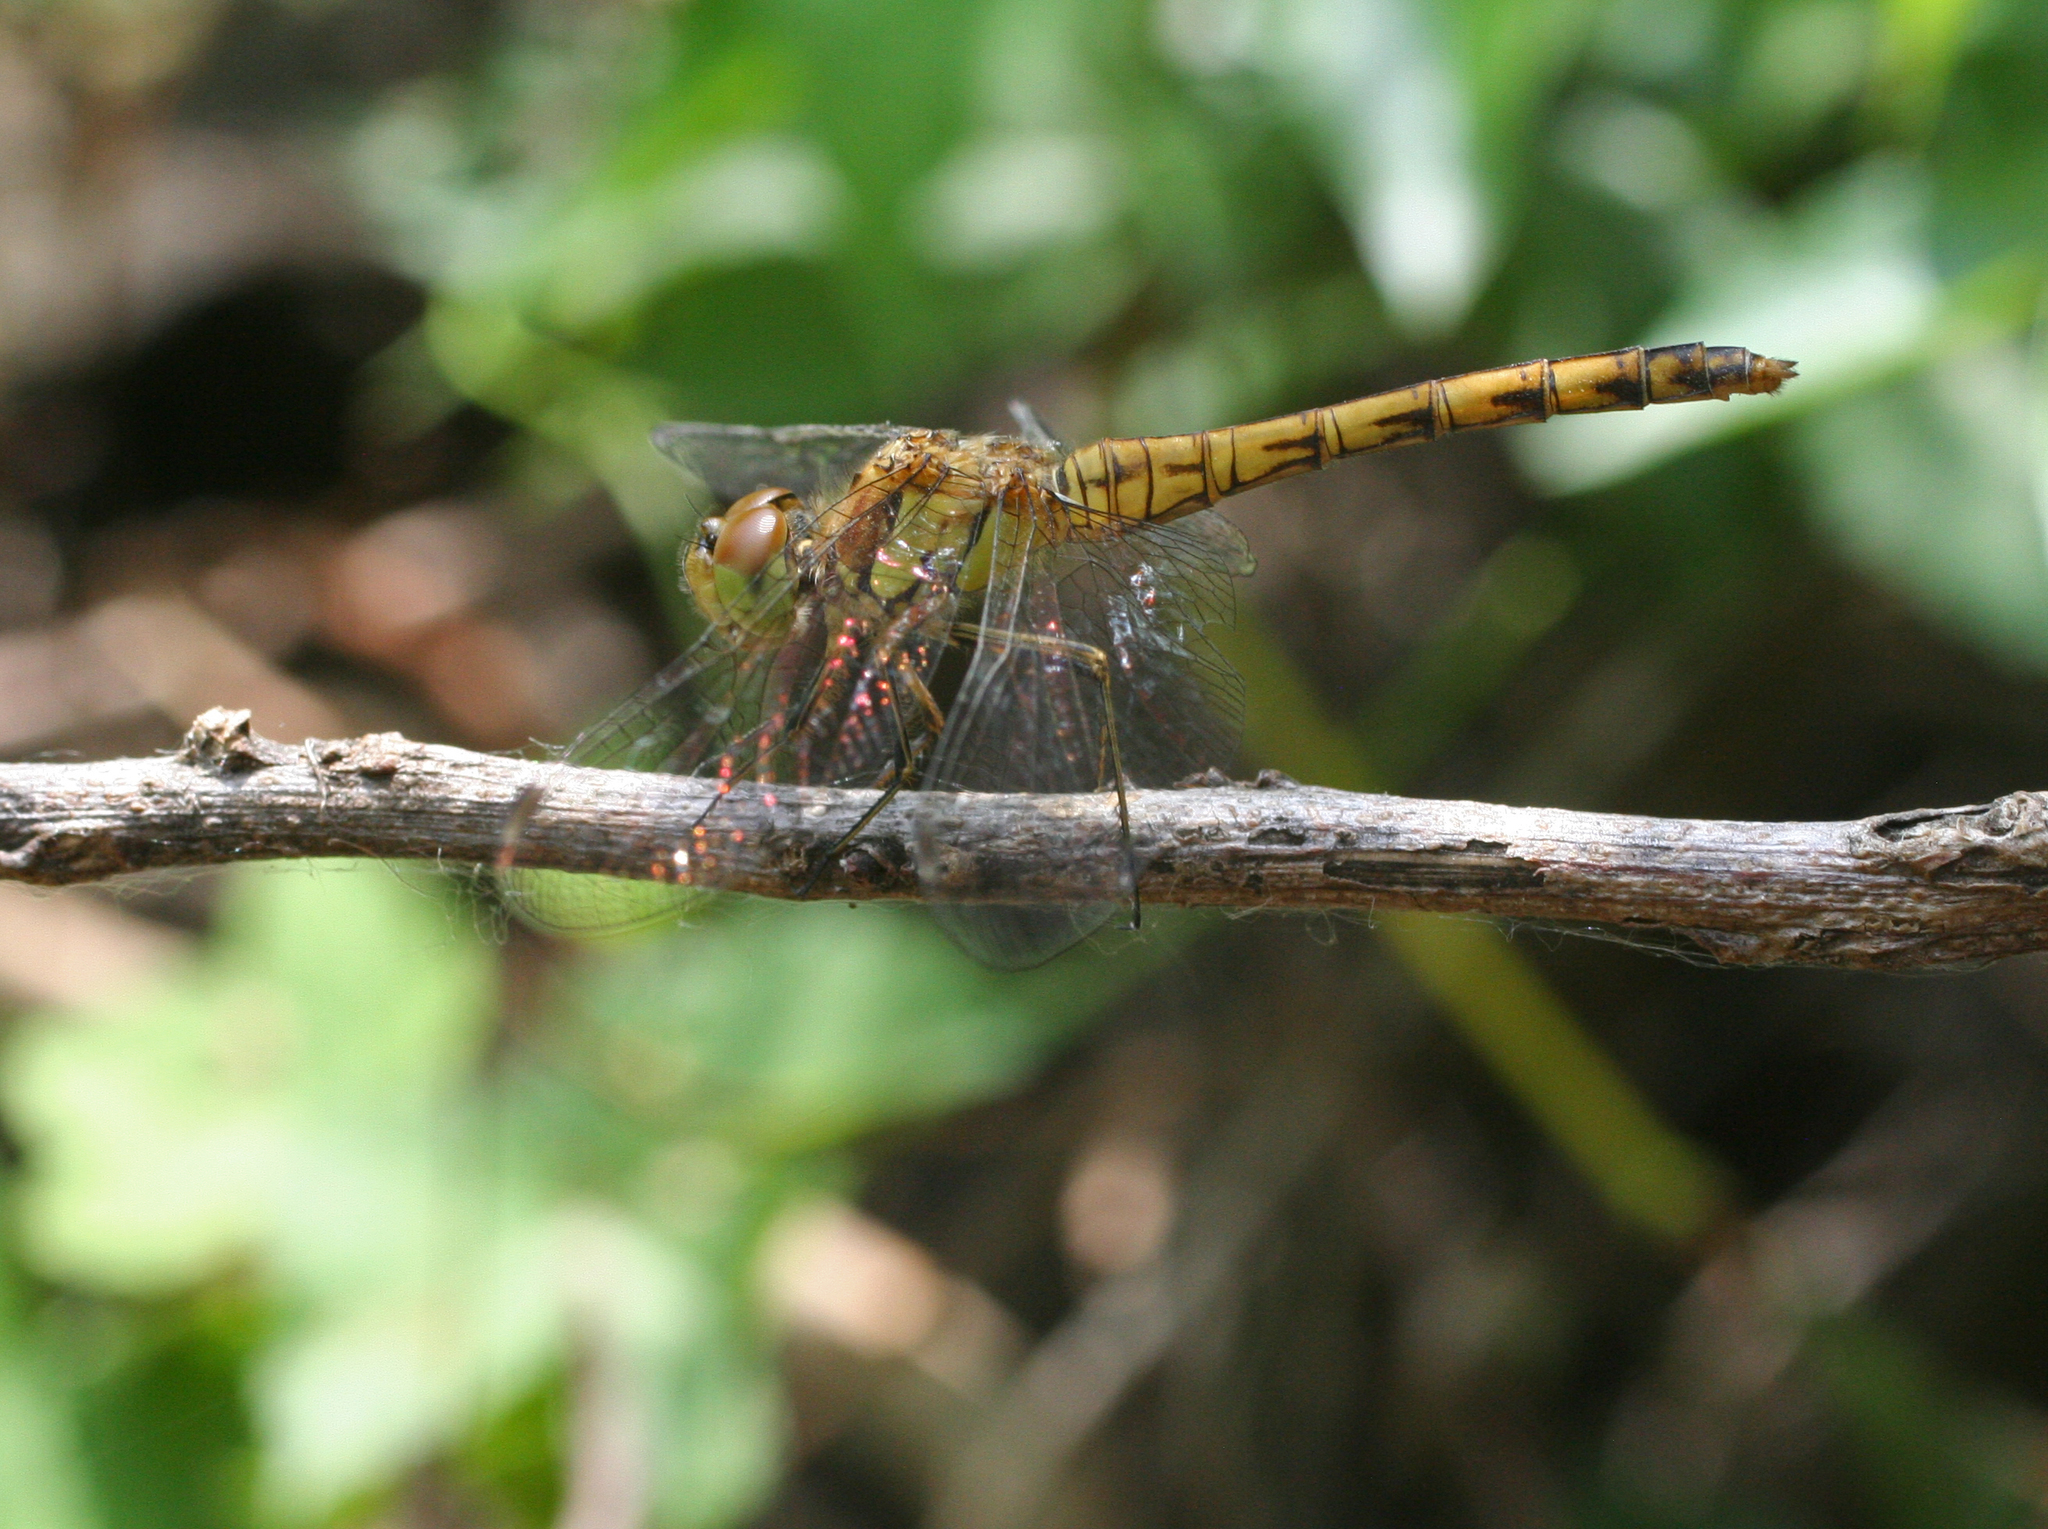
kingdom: Animalia
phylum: Arthropoda
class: Insecta
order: Odonata
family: Libellulidae
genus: Sympetrum
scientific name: Sympetrum striolatum
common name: Common darter
